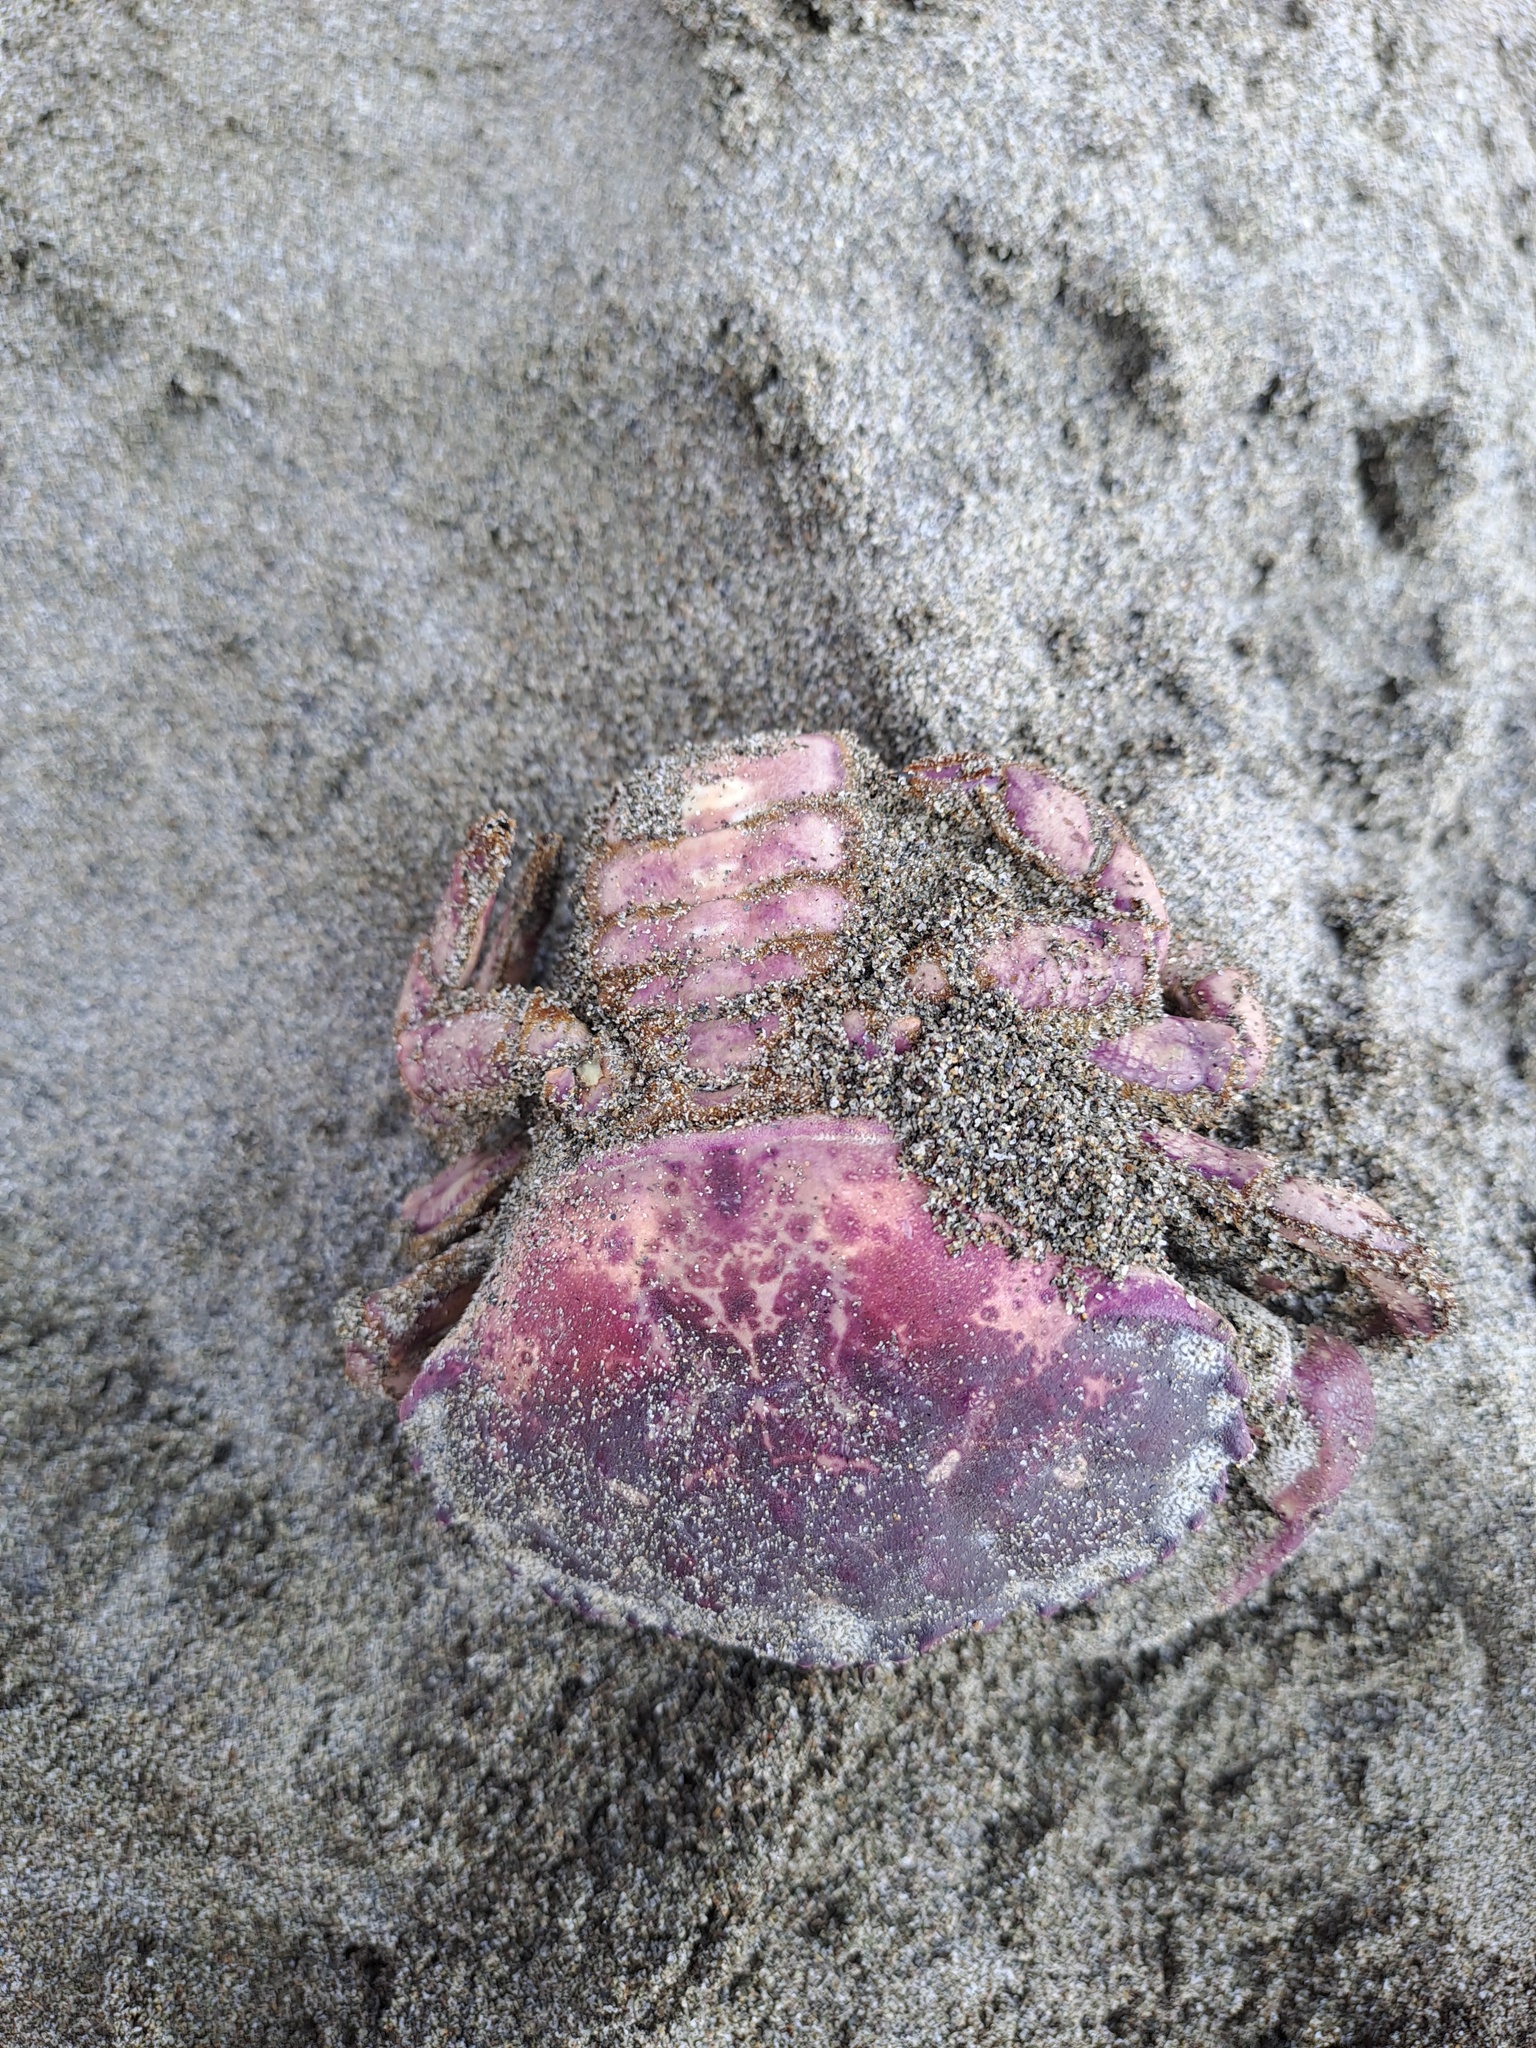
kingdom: Animalia
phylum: Arthropoda
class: Malacostraca
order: Decapoda
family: Platyxanthidae
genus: Platyxanthus
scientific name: Platyxanthus orbignyi
